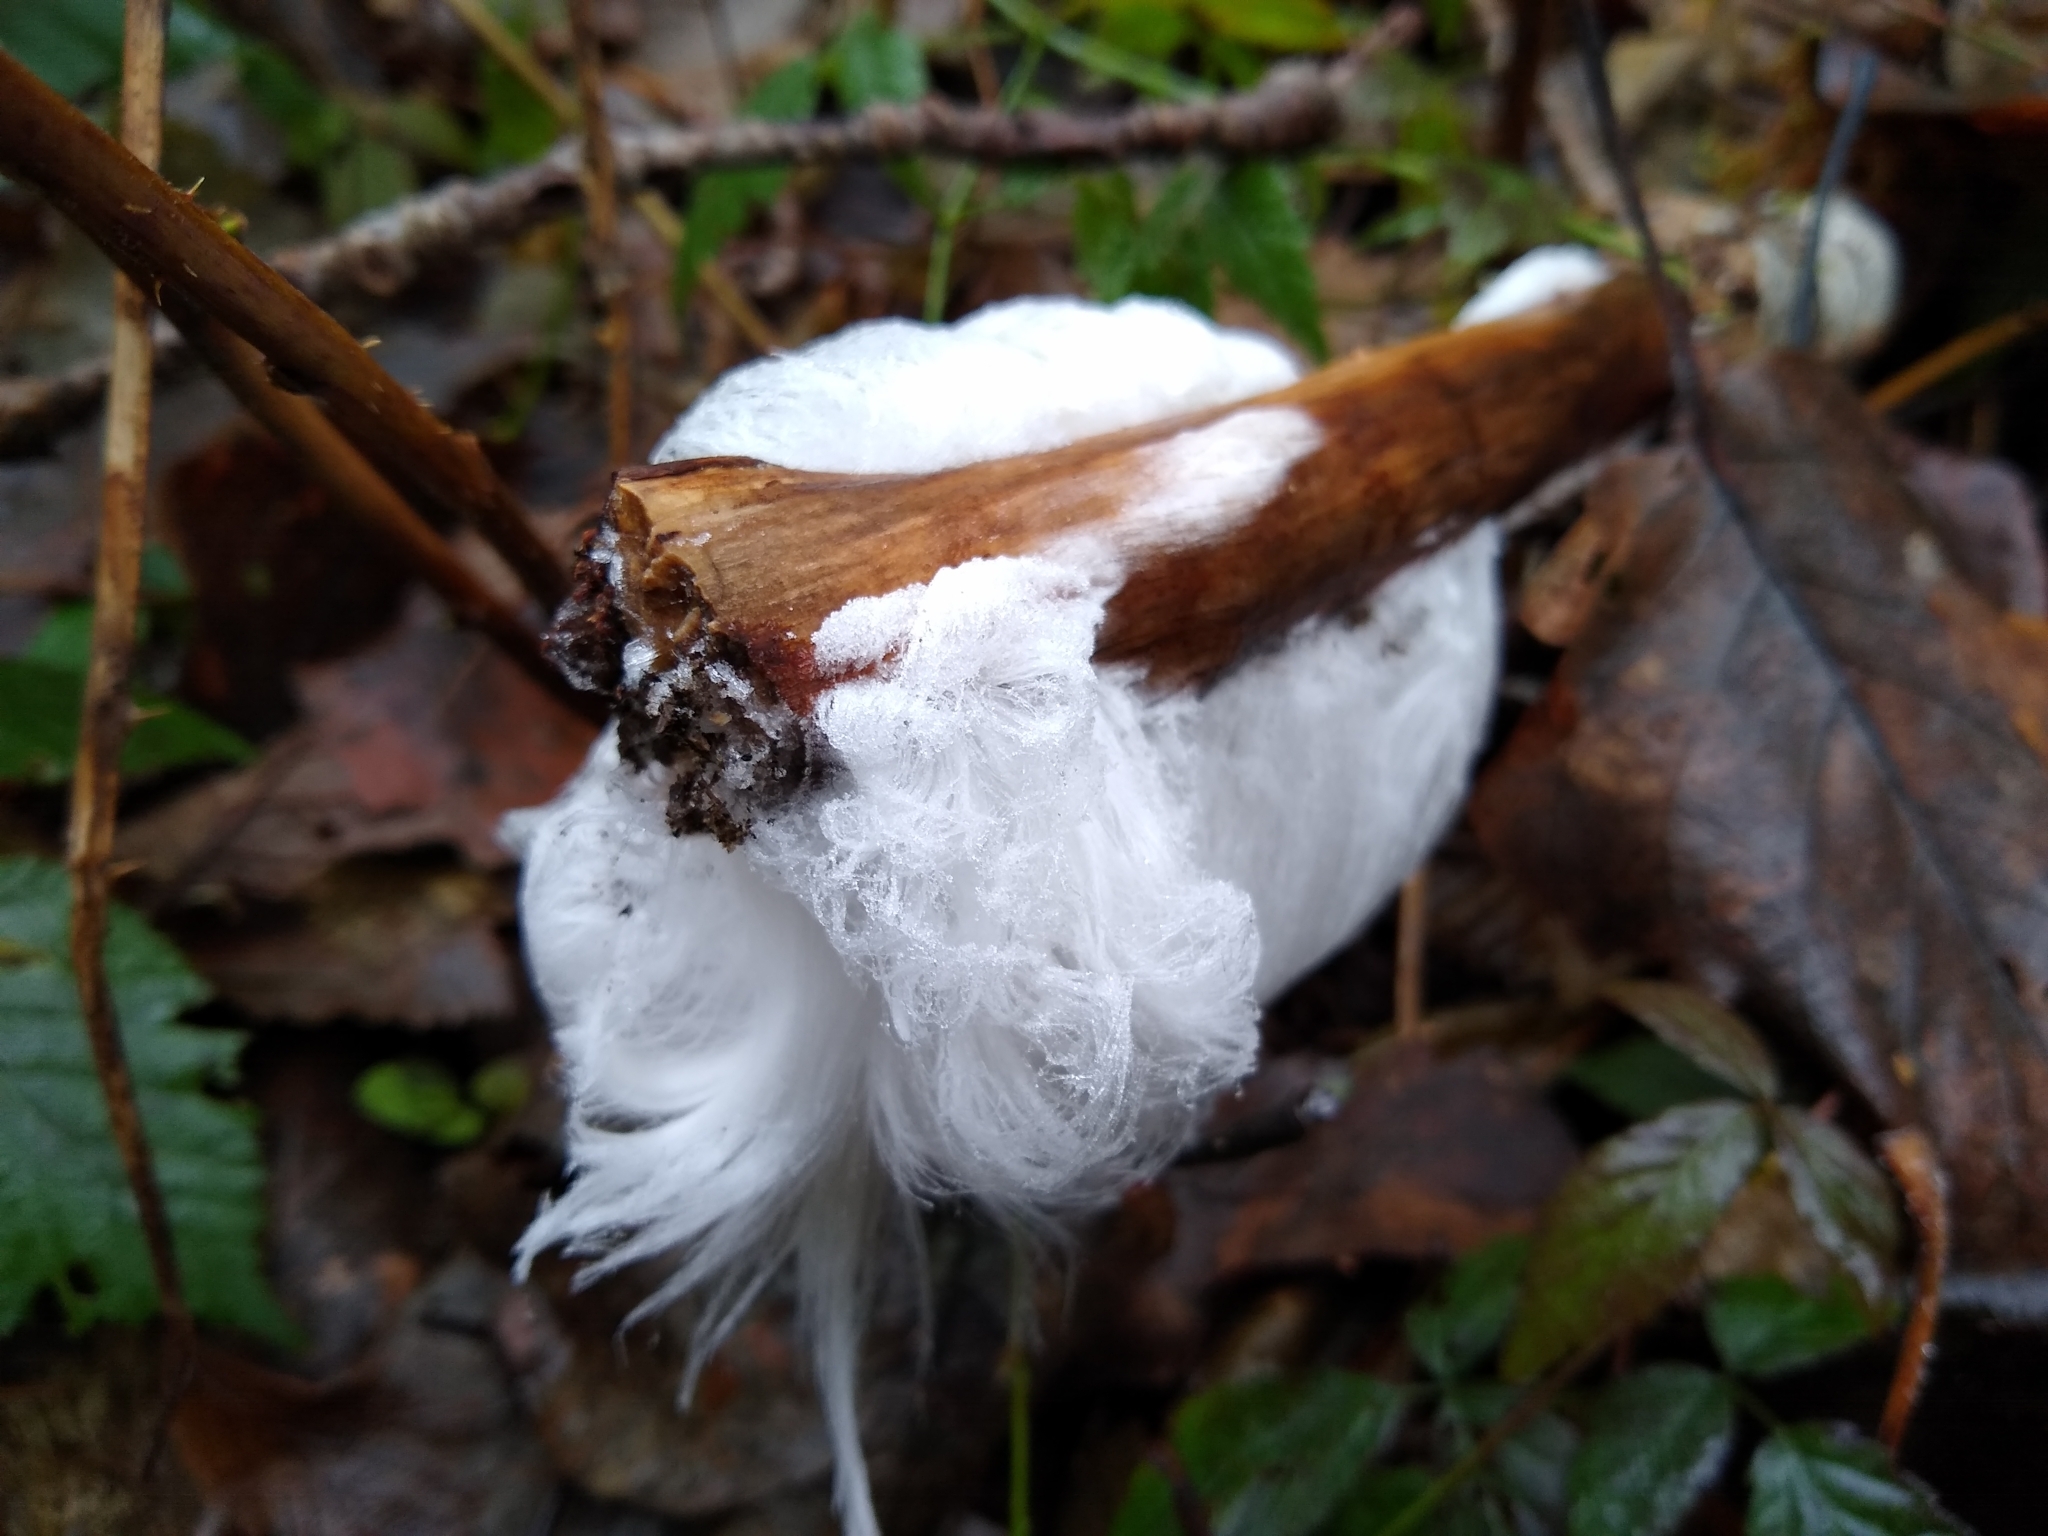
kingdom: Fungi
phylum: Basidiomycota
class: Agaricomycetes
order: Auriculariales
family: Auriculariaceae
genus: Exidiopsis
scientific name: Exidiopsis effusa
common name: Hair ice crust
